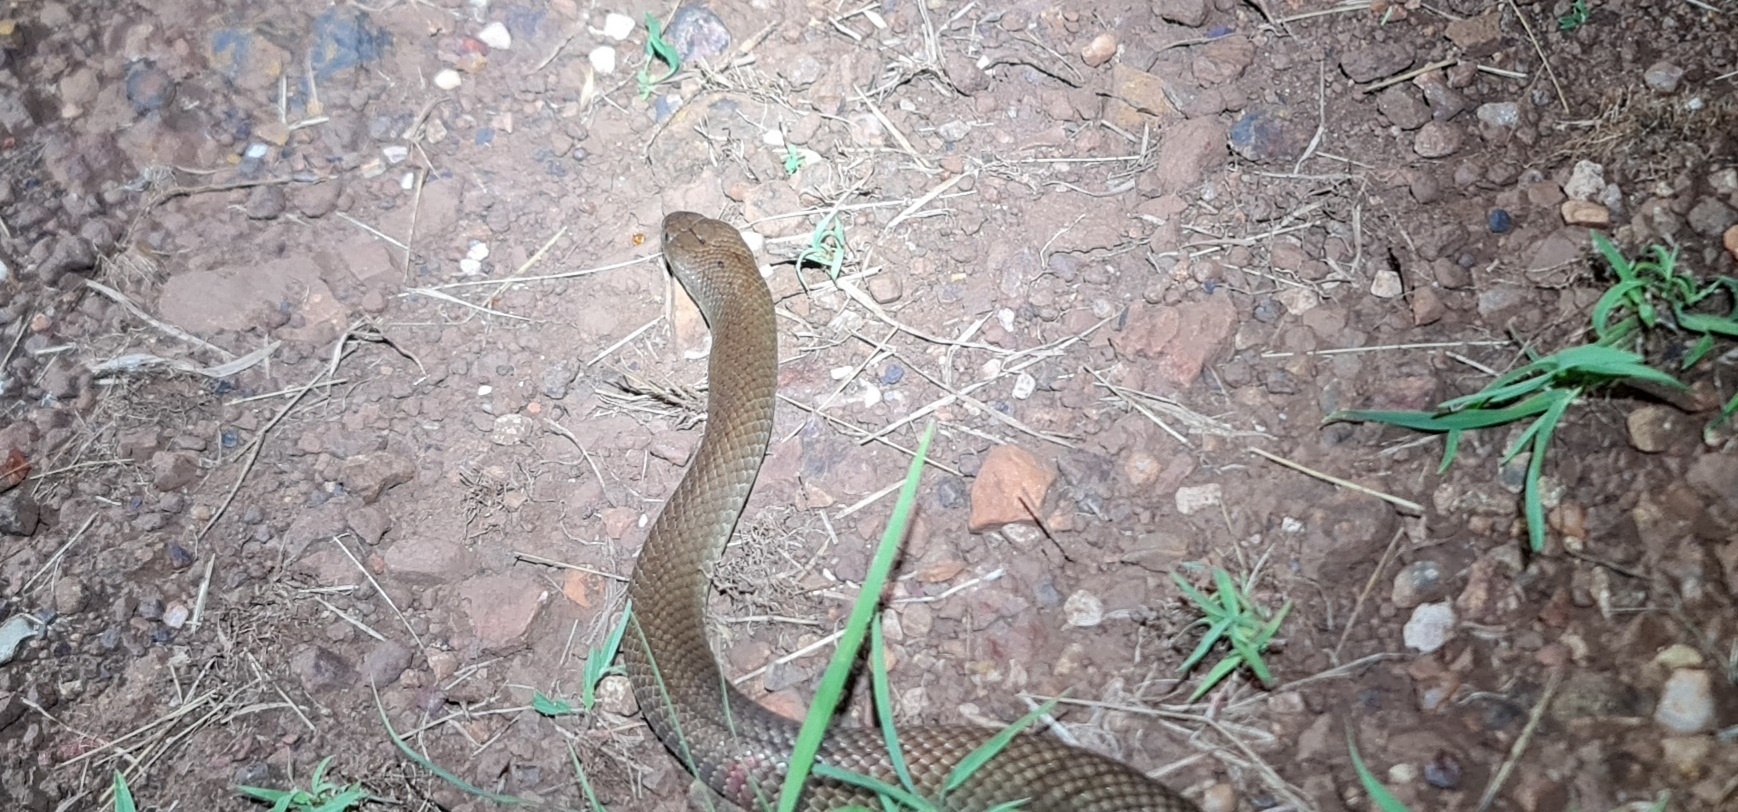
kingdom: Animalia
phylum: Chordata
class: Squamata
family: Elapidae
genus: Pseudechis
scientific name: Pseudechis weigeli
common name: Pygmy mulga snake
